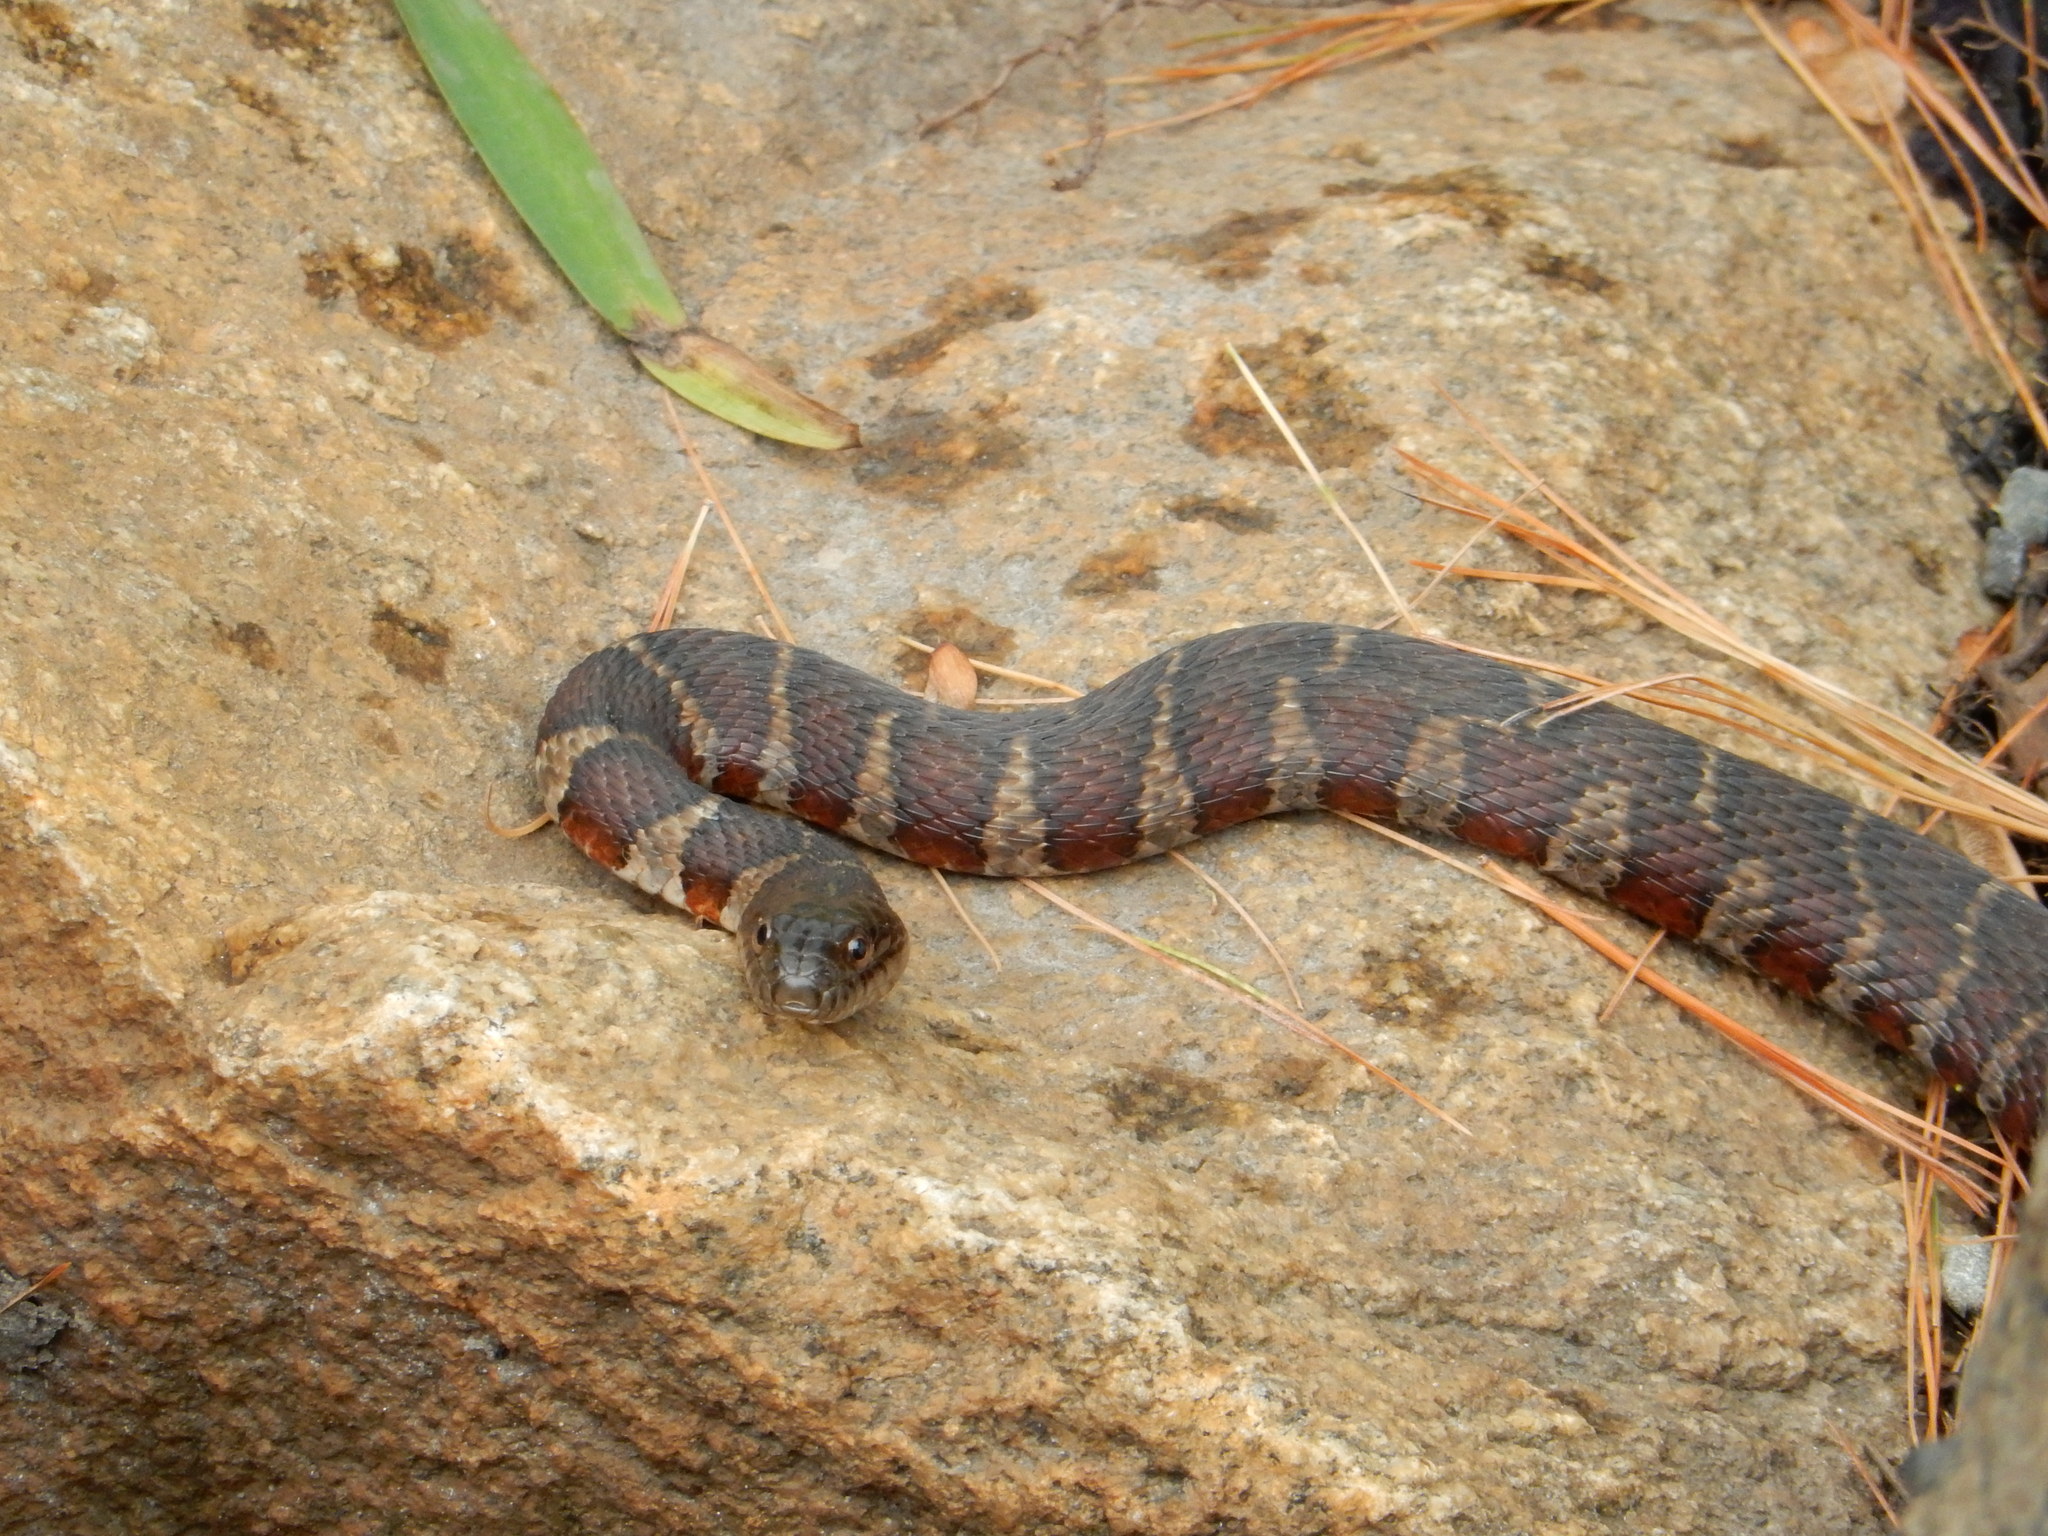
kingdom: Animalia
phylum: Chordata
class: Squamata
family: Colubridae
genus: Nerodia
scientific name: Nerodia sipedon
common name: Northern water snake
